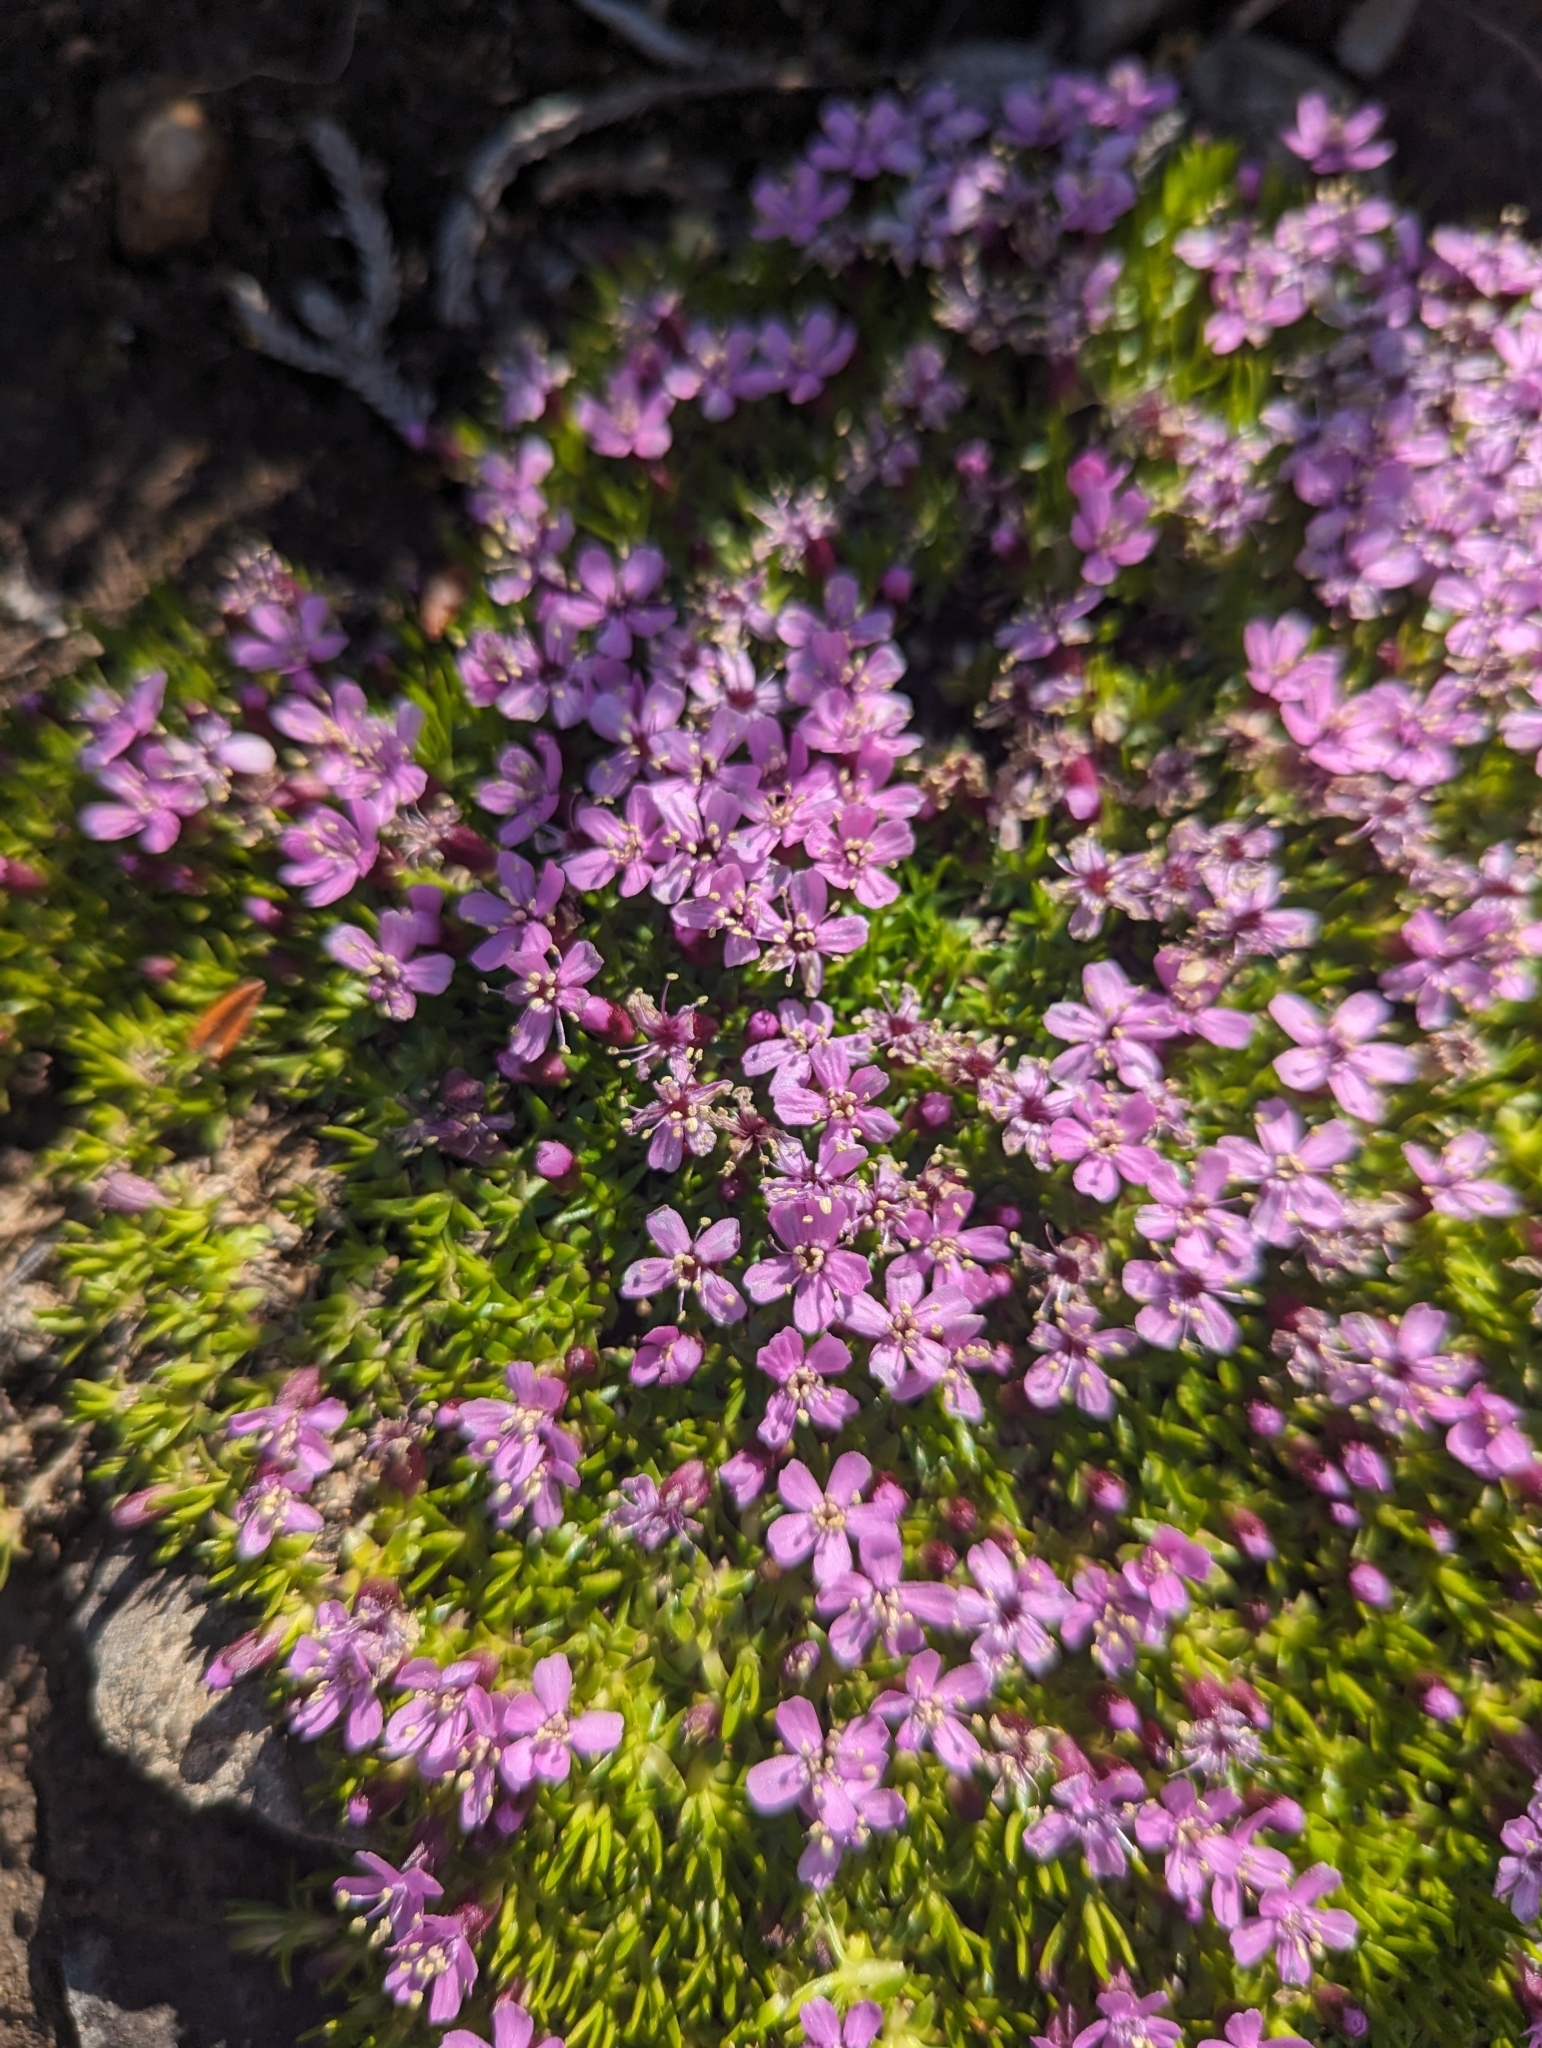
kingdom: Plantae
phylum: Tracheophyta
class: Magnoliopsida
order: Caryophyllales
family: Caryophyllaceae
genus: Silene
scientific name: Silene acaulis
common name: Moss campion
